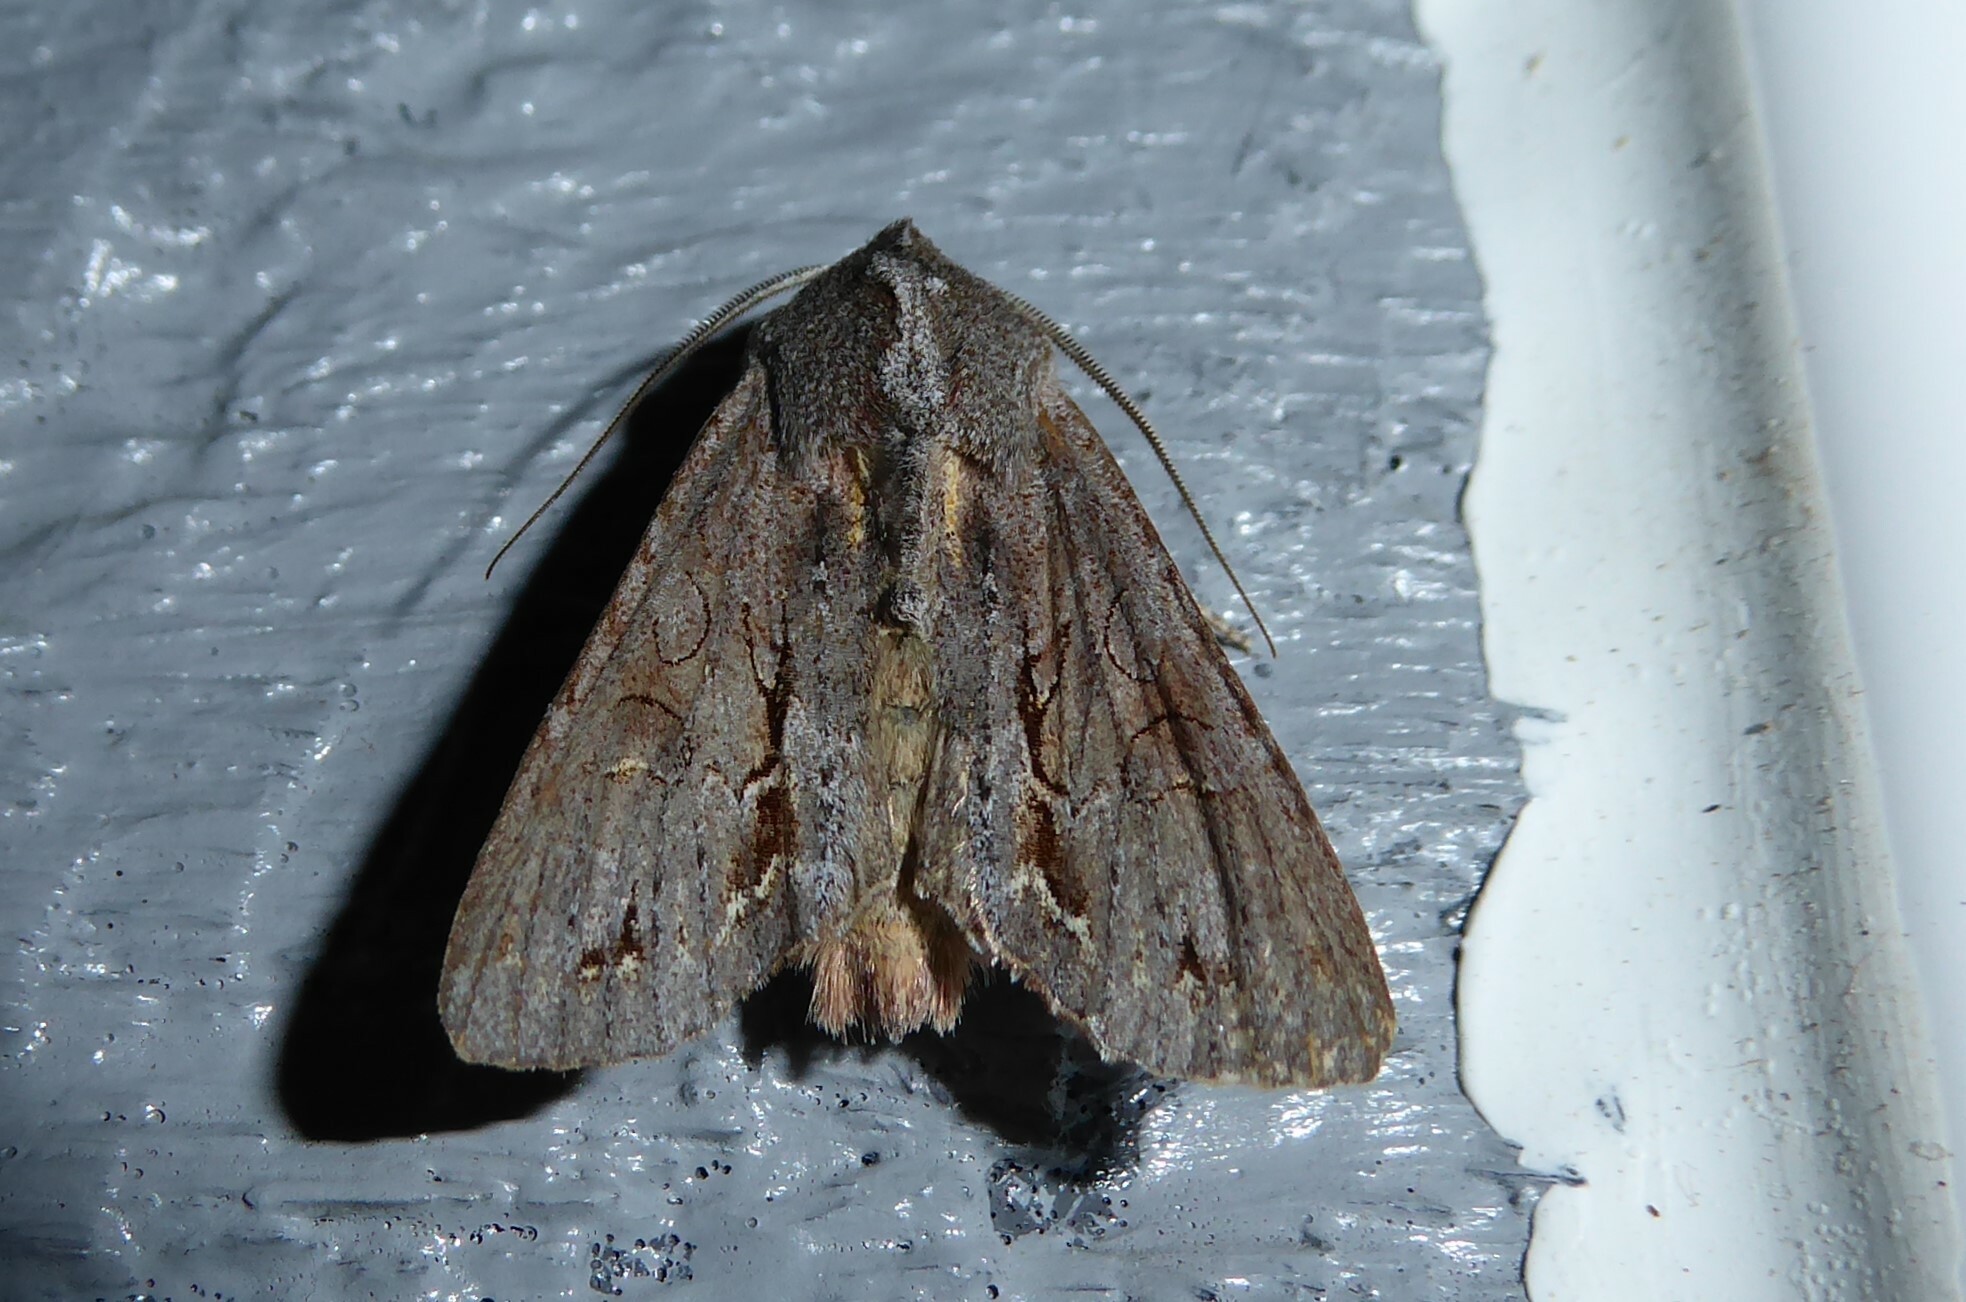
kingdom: Animalia
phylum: Arthropoda
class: Insecta
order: Lepidoptera
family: Noctuidae
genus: Ichneutica
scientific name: Ichneutica
